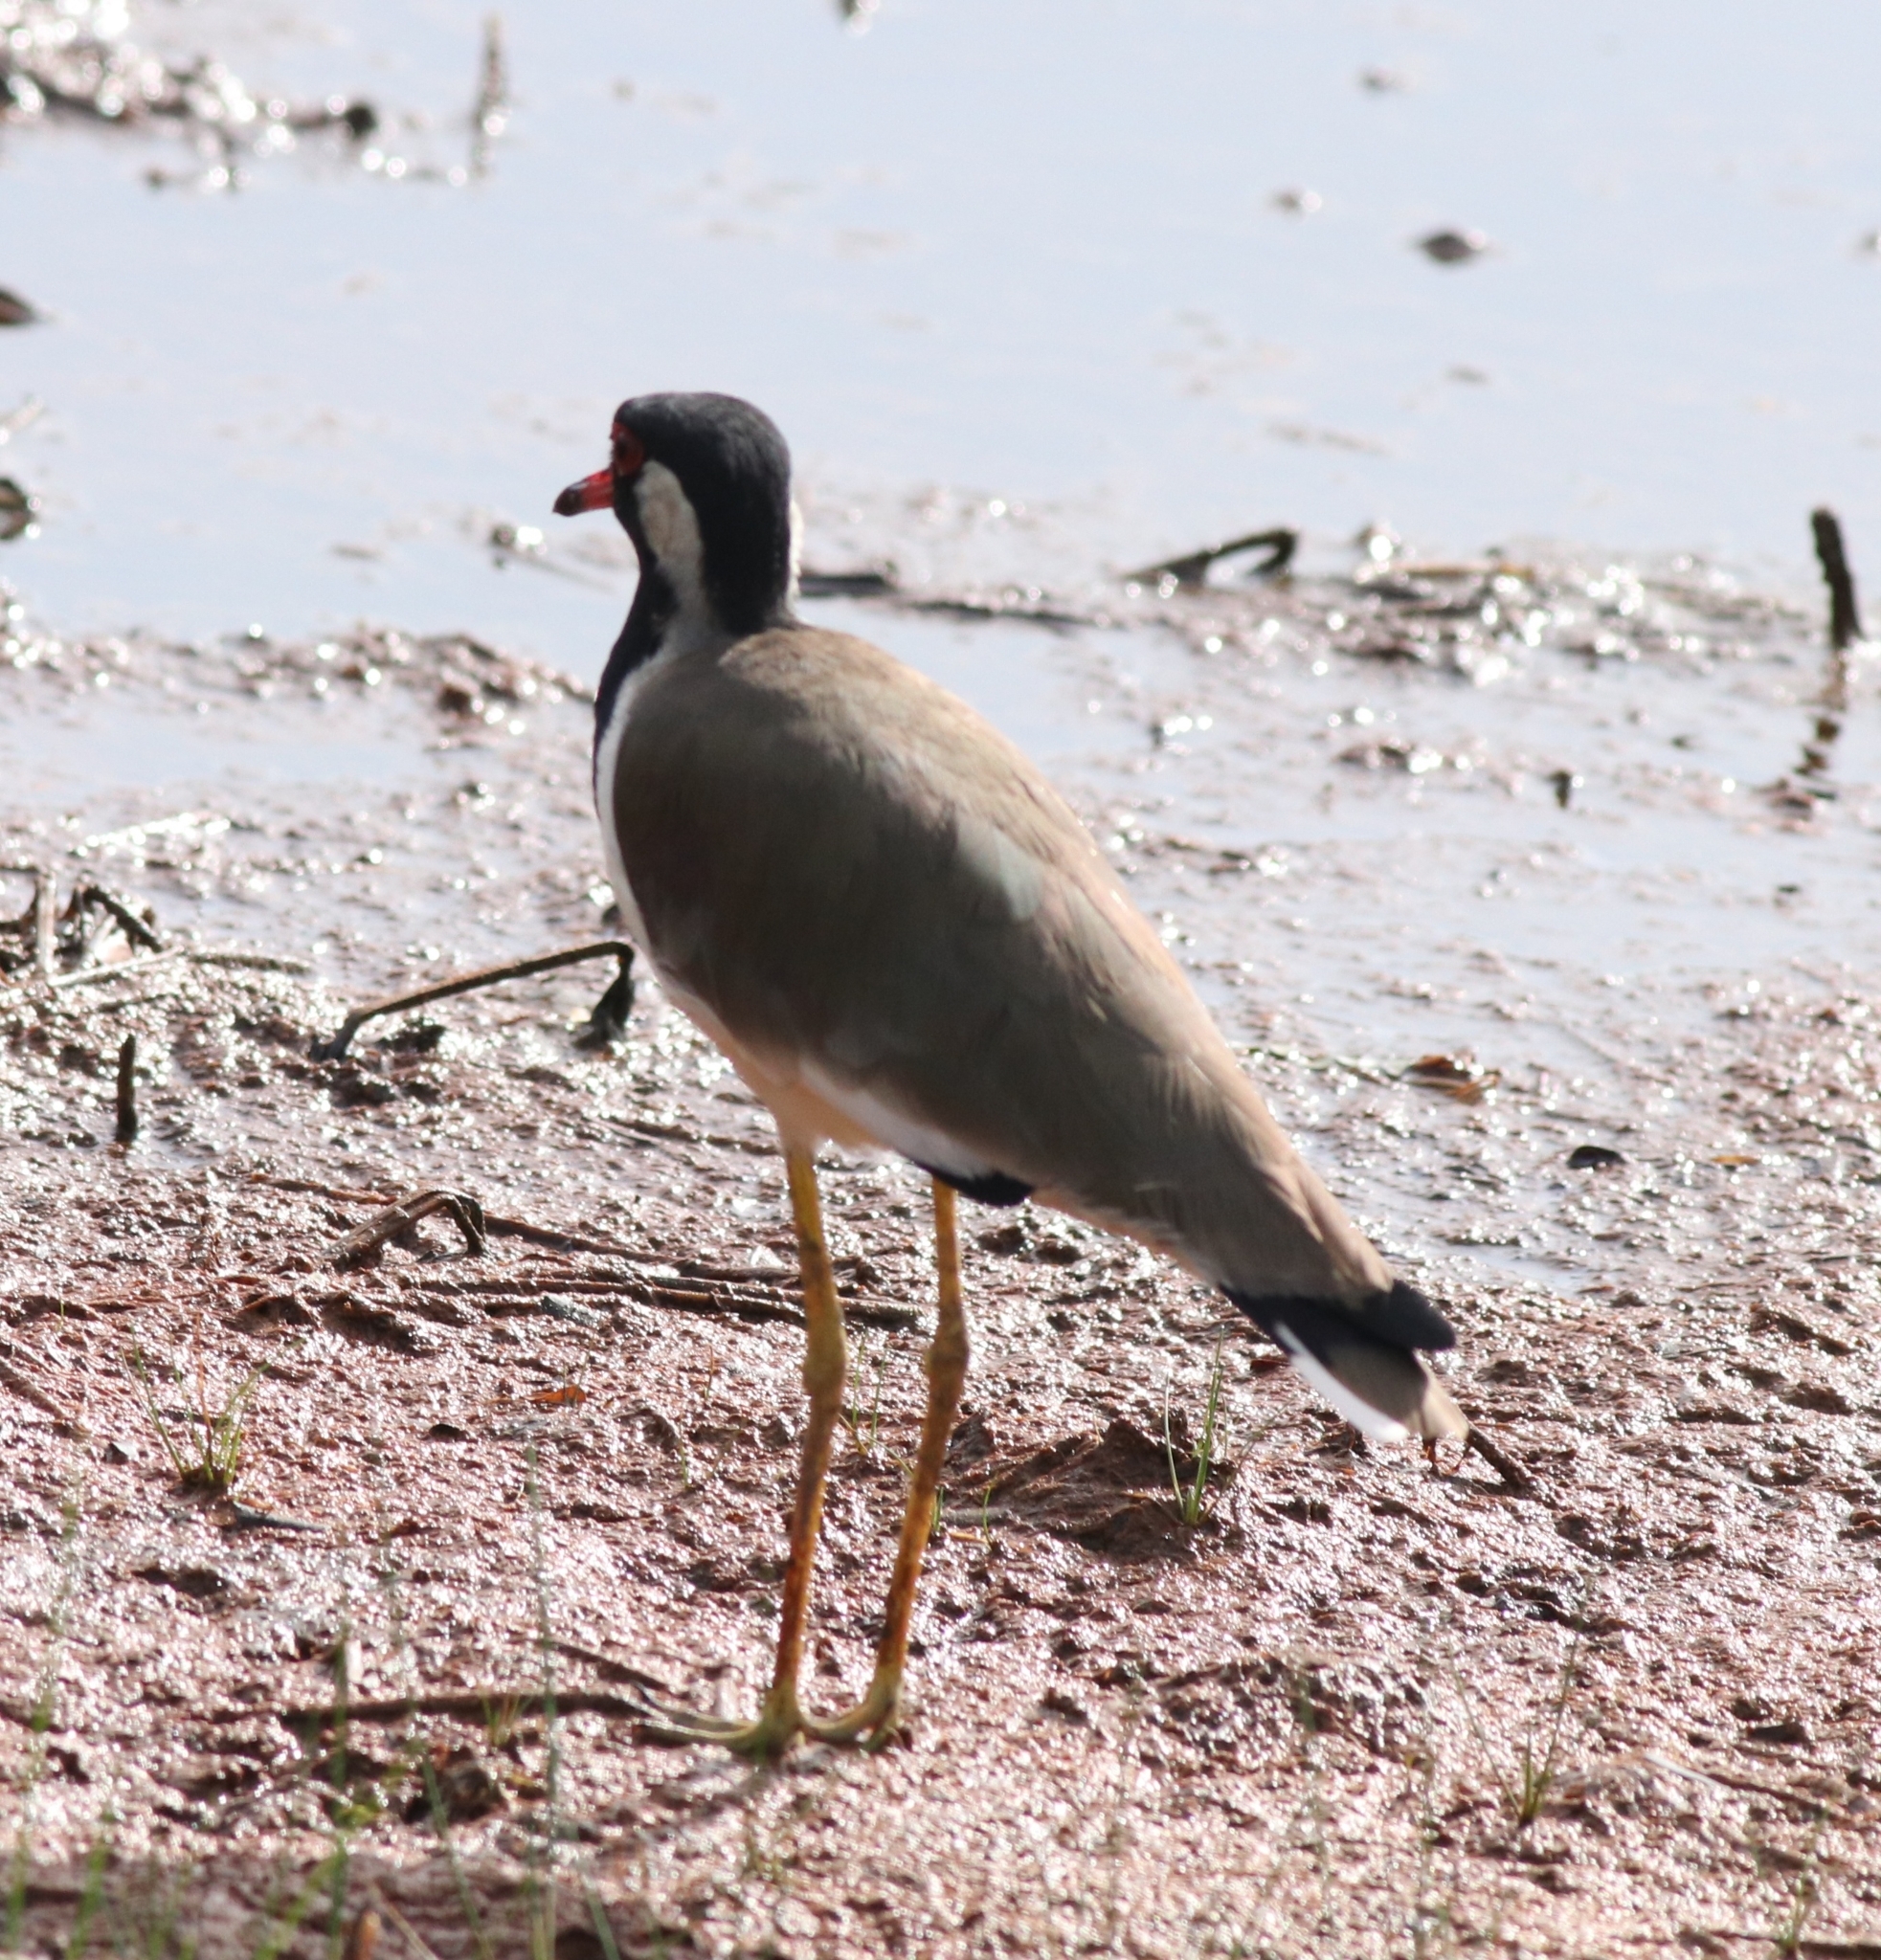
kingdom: Animalia
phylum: Chordata
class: Aves
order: Charadriiformes
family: Charadriidae
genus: Vanellus
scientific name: Vanellus indicus
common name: Red-wattled lapwing
